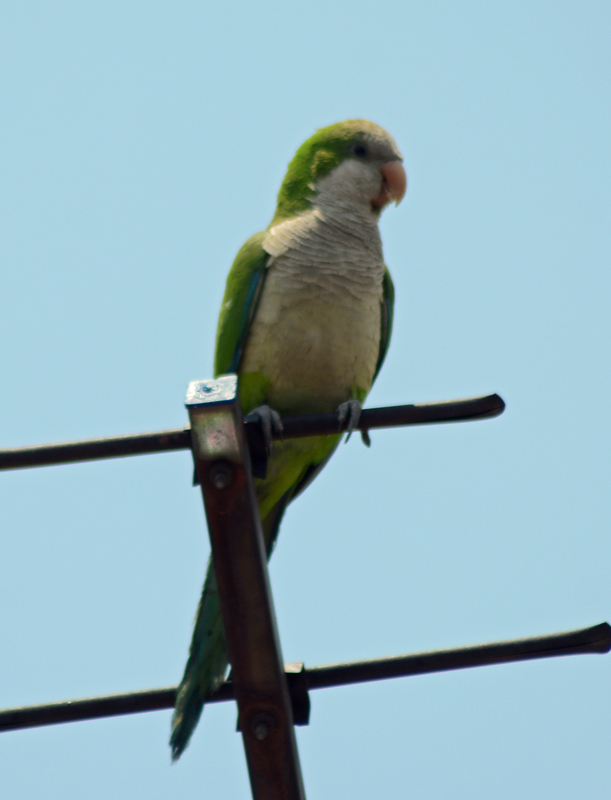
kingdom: Animalia
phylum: Chordata
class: Aves
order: Psittaciformes
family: Psittacidae
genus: Myiopsitta
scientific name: Myiopsitta monachus
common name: Monk parakeet
